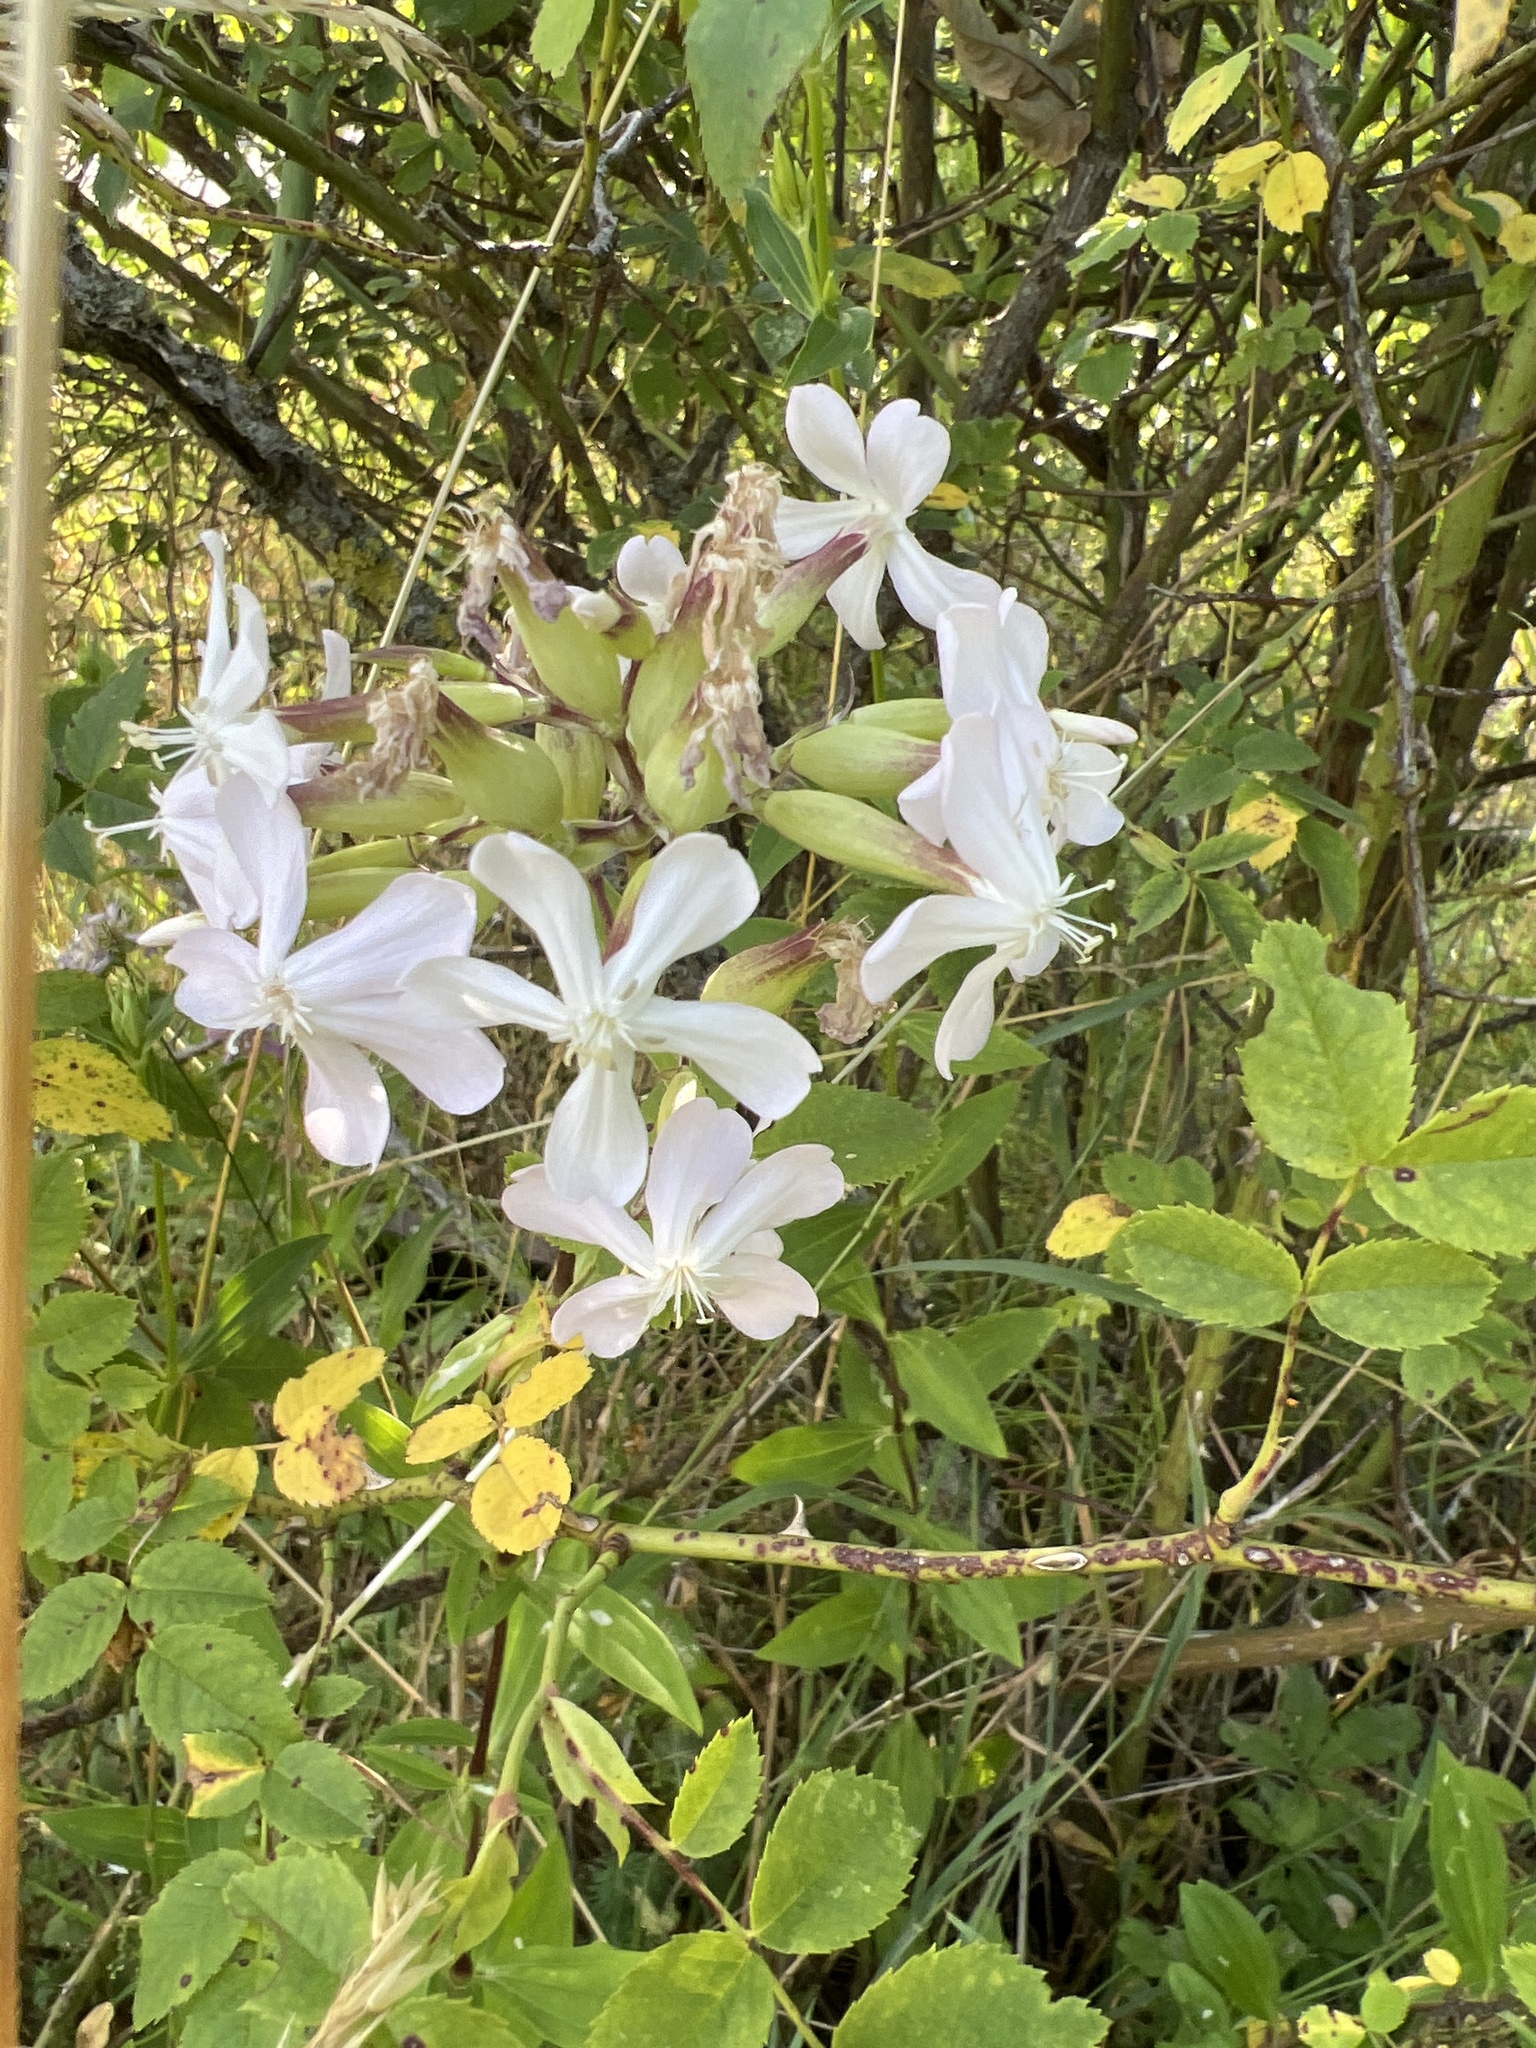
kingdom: Plantae
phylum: Tracheophyta
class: Magnoliopsida
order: Caryophyllales
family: Caryophyllaceae
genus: Saponaria
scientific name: Saponaria officinalis
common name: Soapwort
